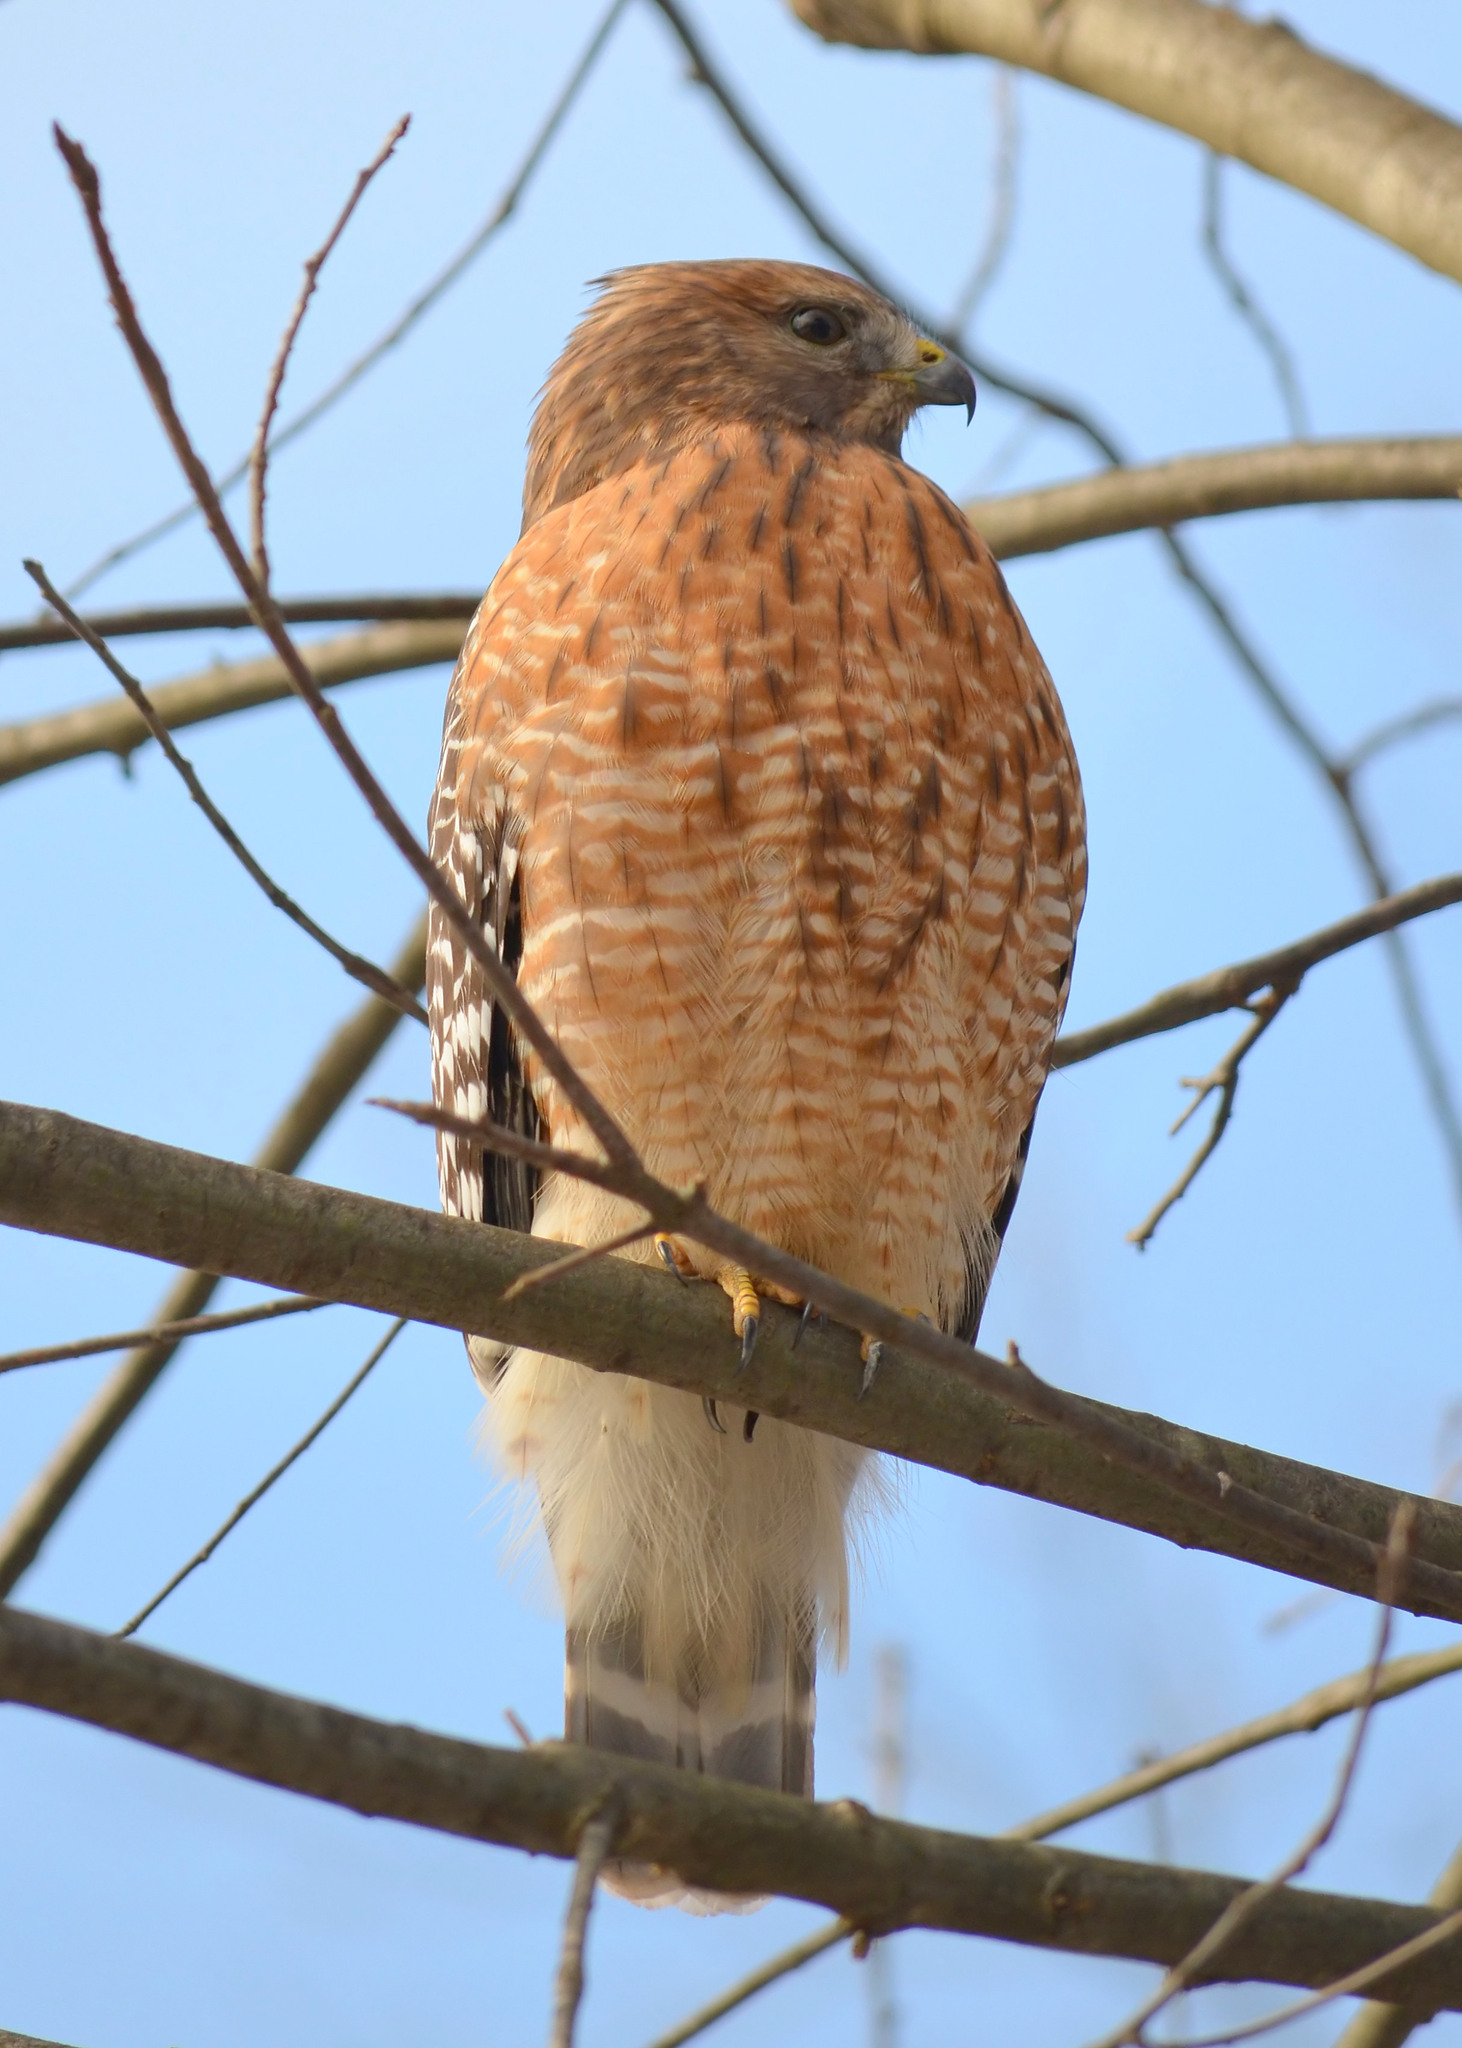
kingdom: Animalia
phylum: Chordata
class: Aves
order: Accipitriformes
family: Accipitridae
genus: Buteo
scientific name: Buteo lineatus
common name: Red-shouldered hawk
